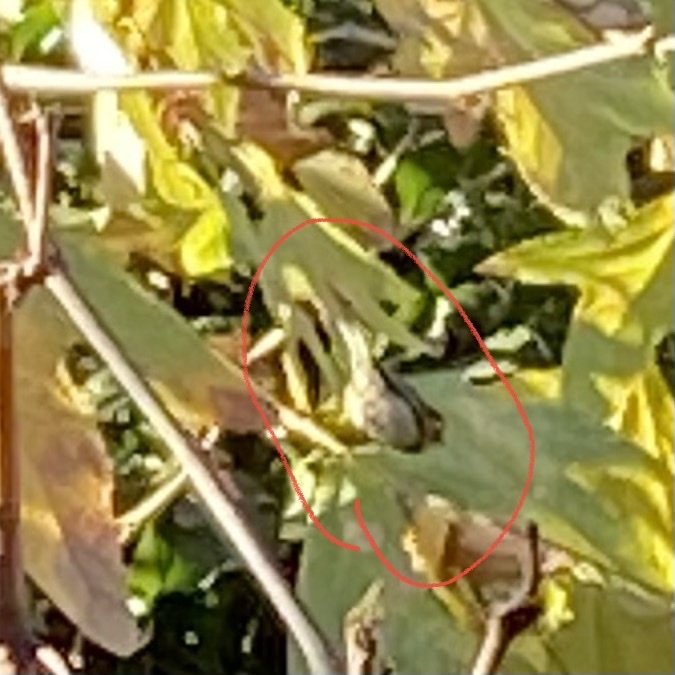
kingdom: Animalia
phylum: Chordata
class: Aves
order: Passeriformes
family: Parulidae
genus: Setophaga
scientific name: Setophaga townsendi
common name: Townsend's warbler
